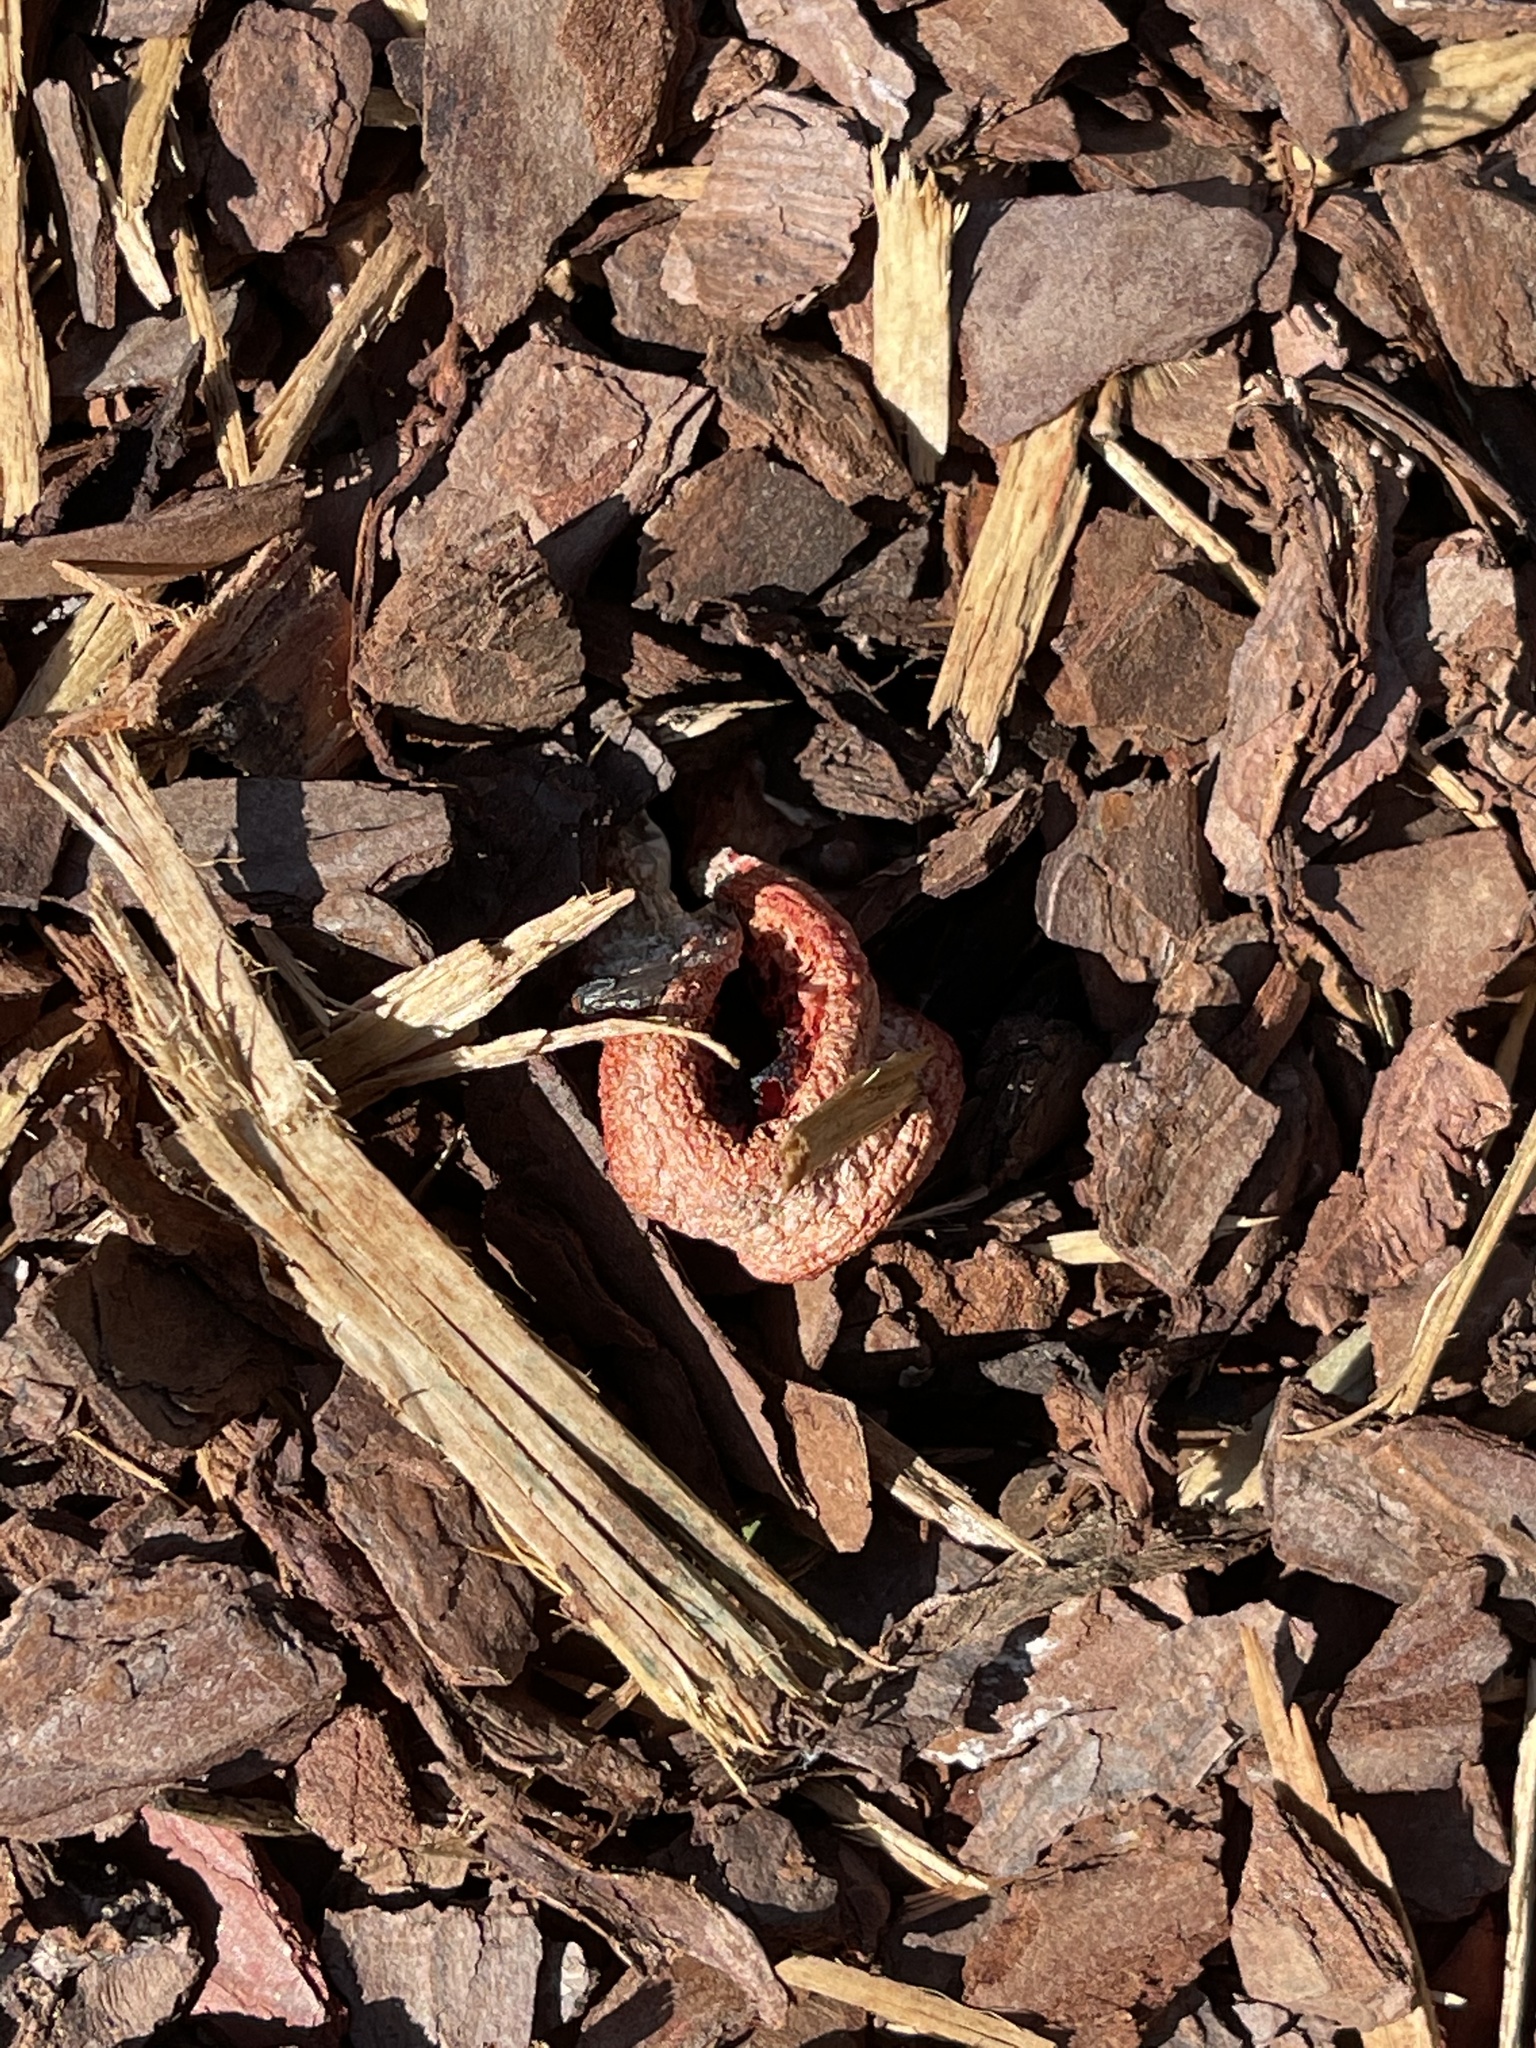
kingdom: Fungi
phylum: Basidiomycota
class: Agaricomycetes
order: Phallales
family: Phallaceae
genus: Clathrus
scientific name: Clathrus columnatus
